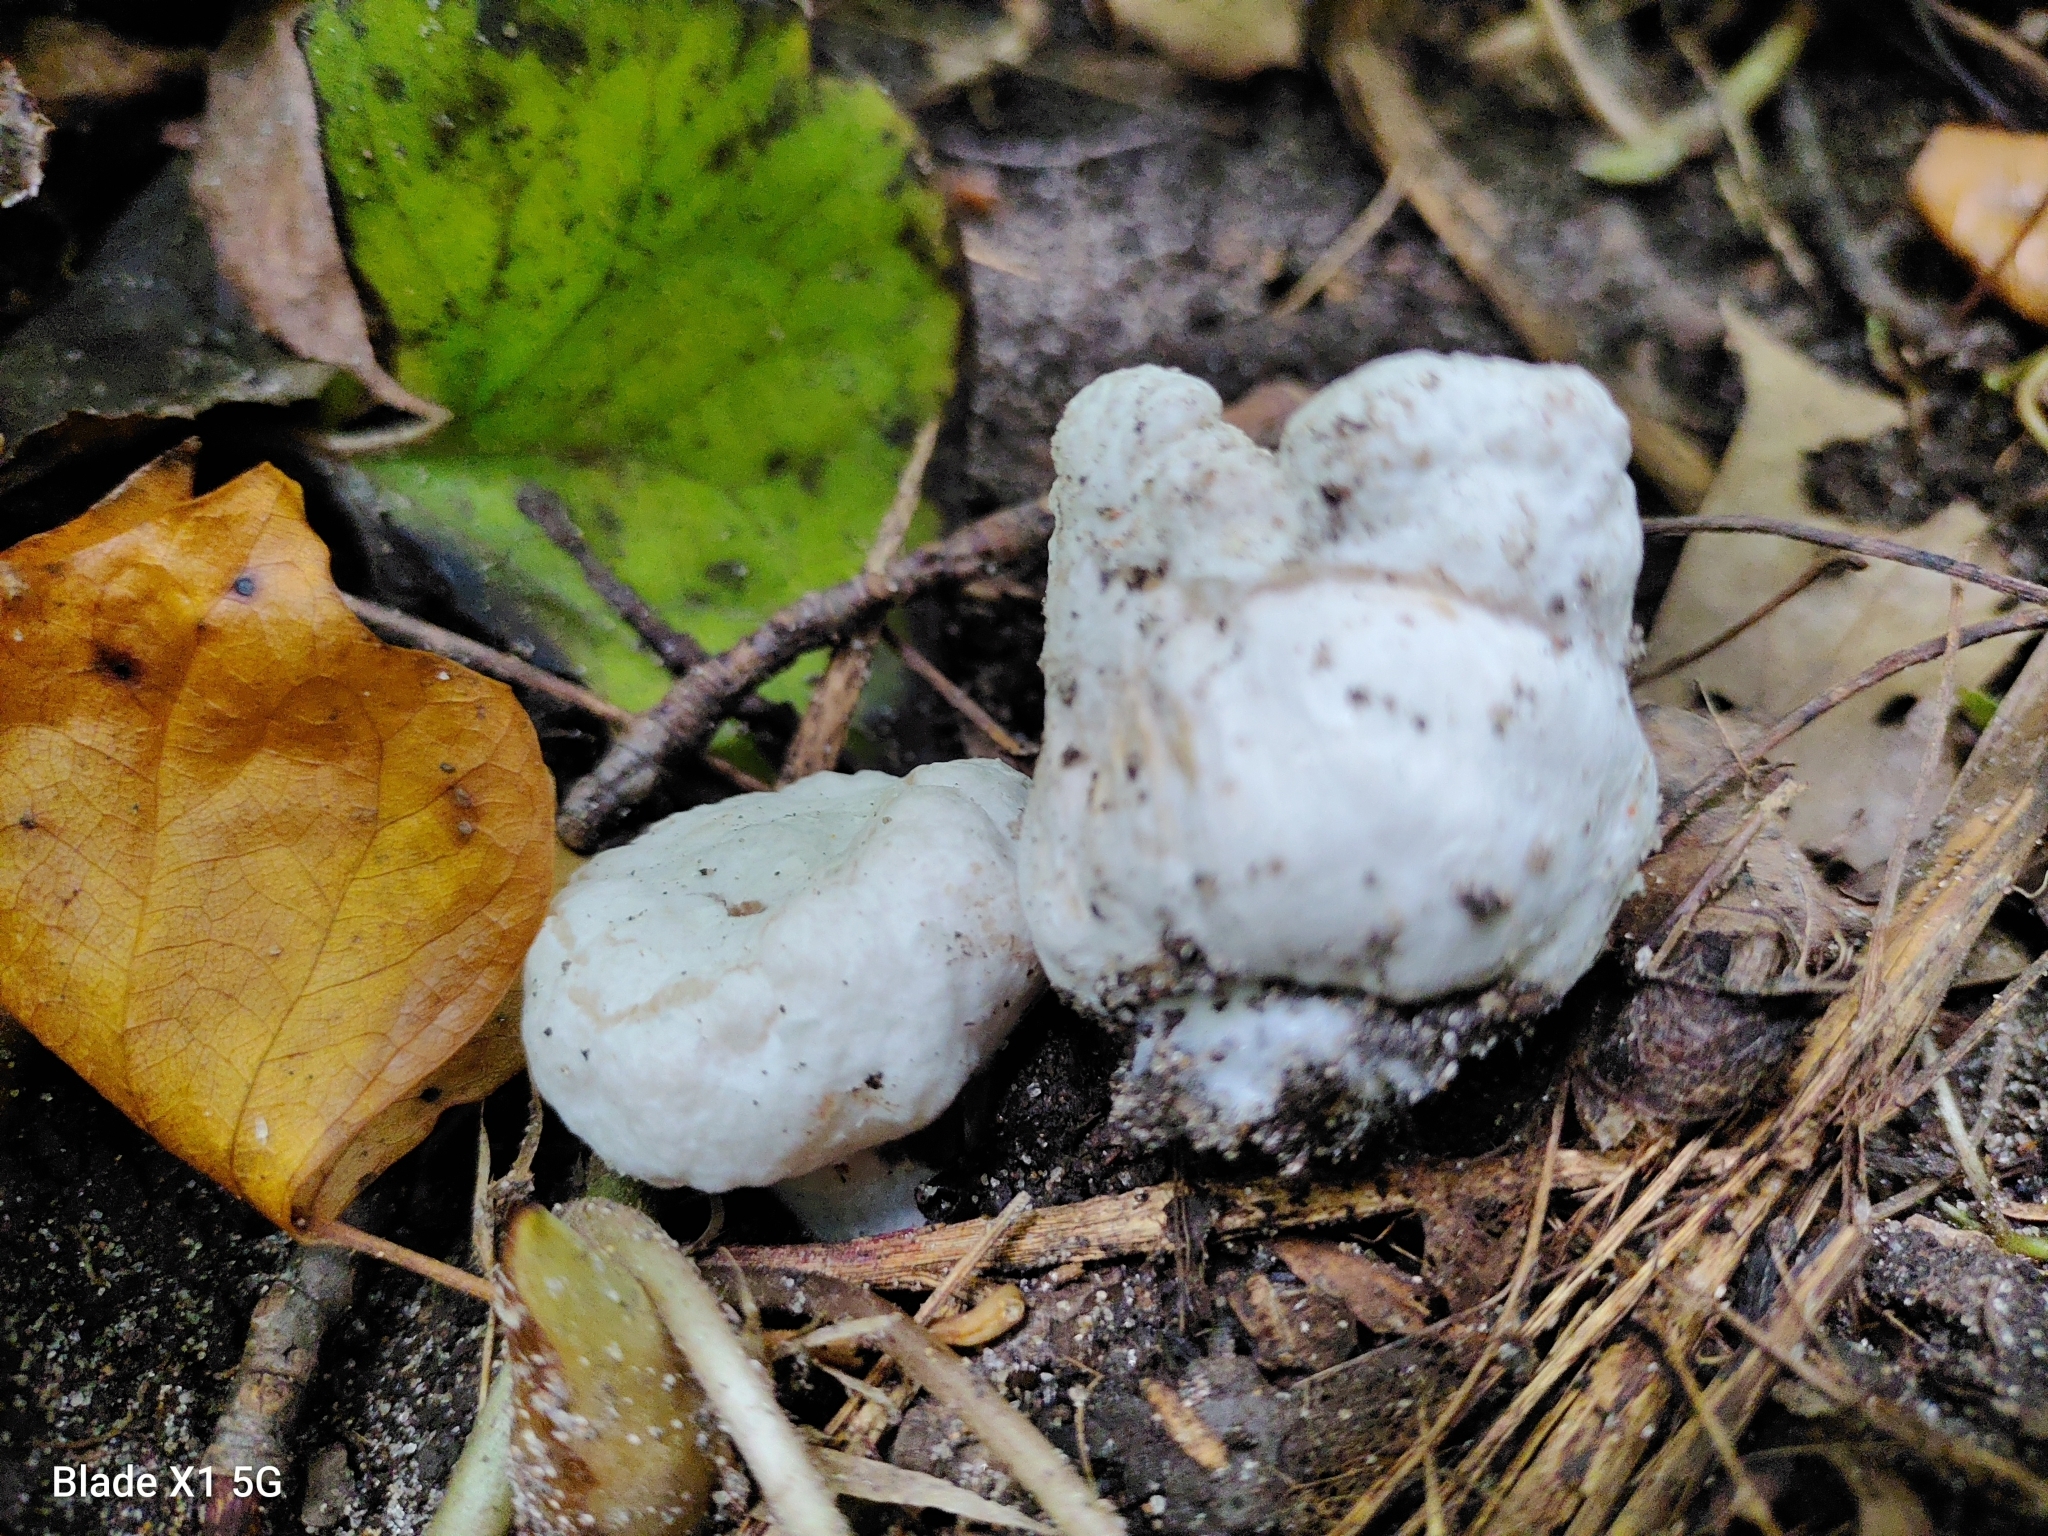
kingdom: Fungi
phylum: Basidiomycota
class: Agaricomycetes
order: Agaricales
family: Entolomataceae
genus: Entoloma
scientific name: Entoloma abortivum
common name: Aborted entoloma
